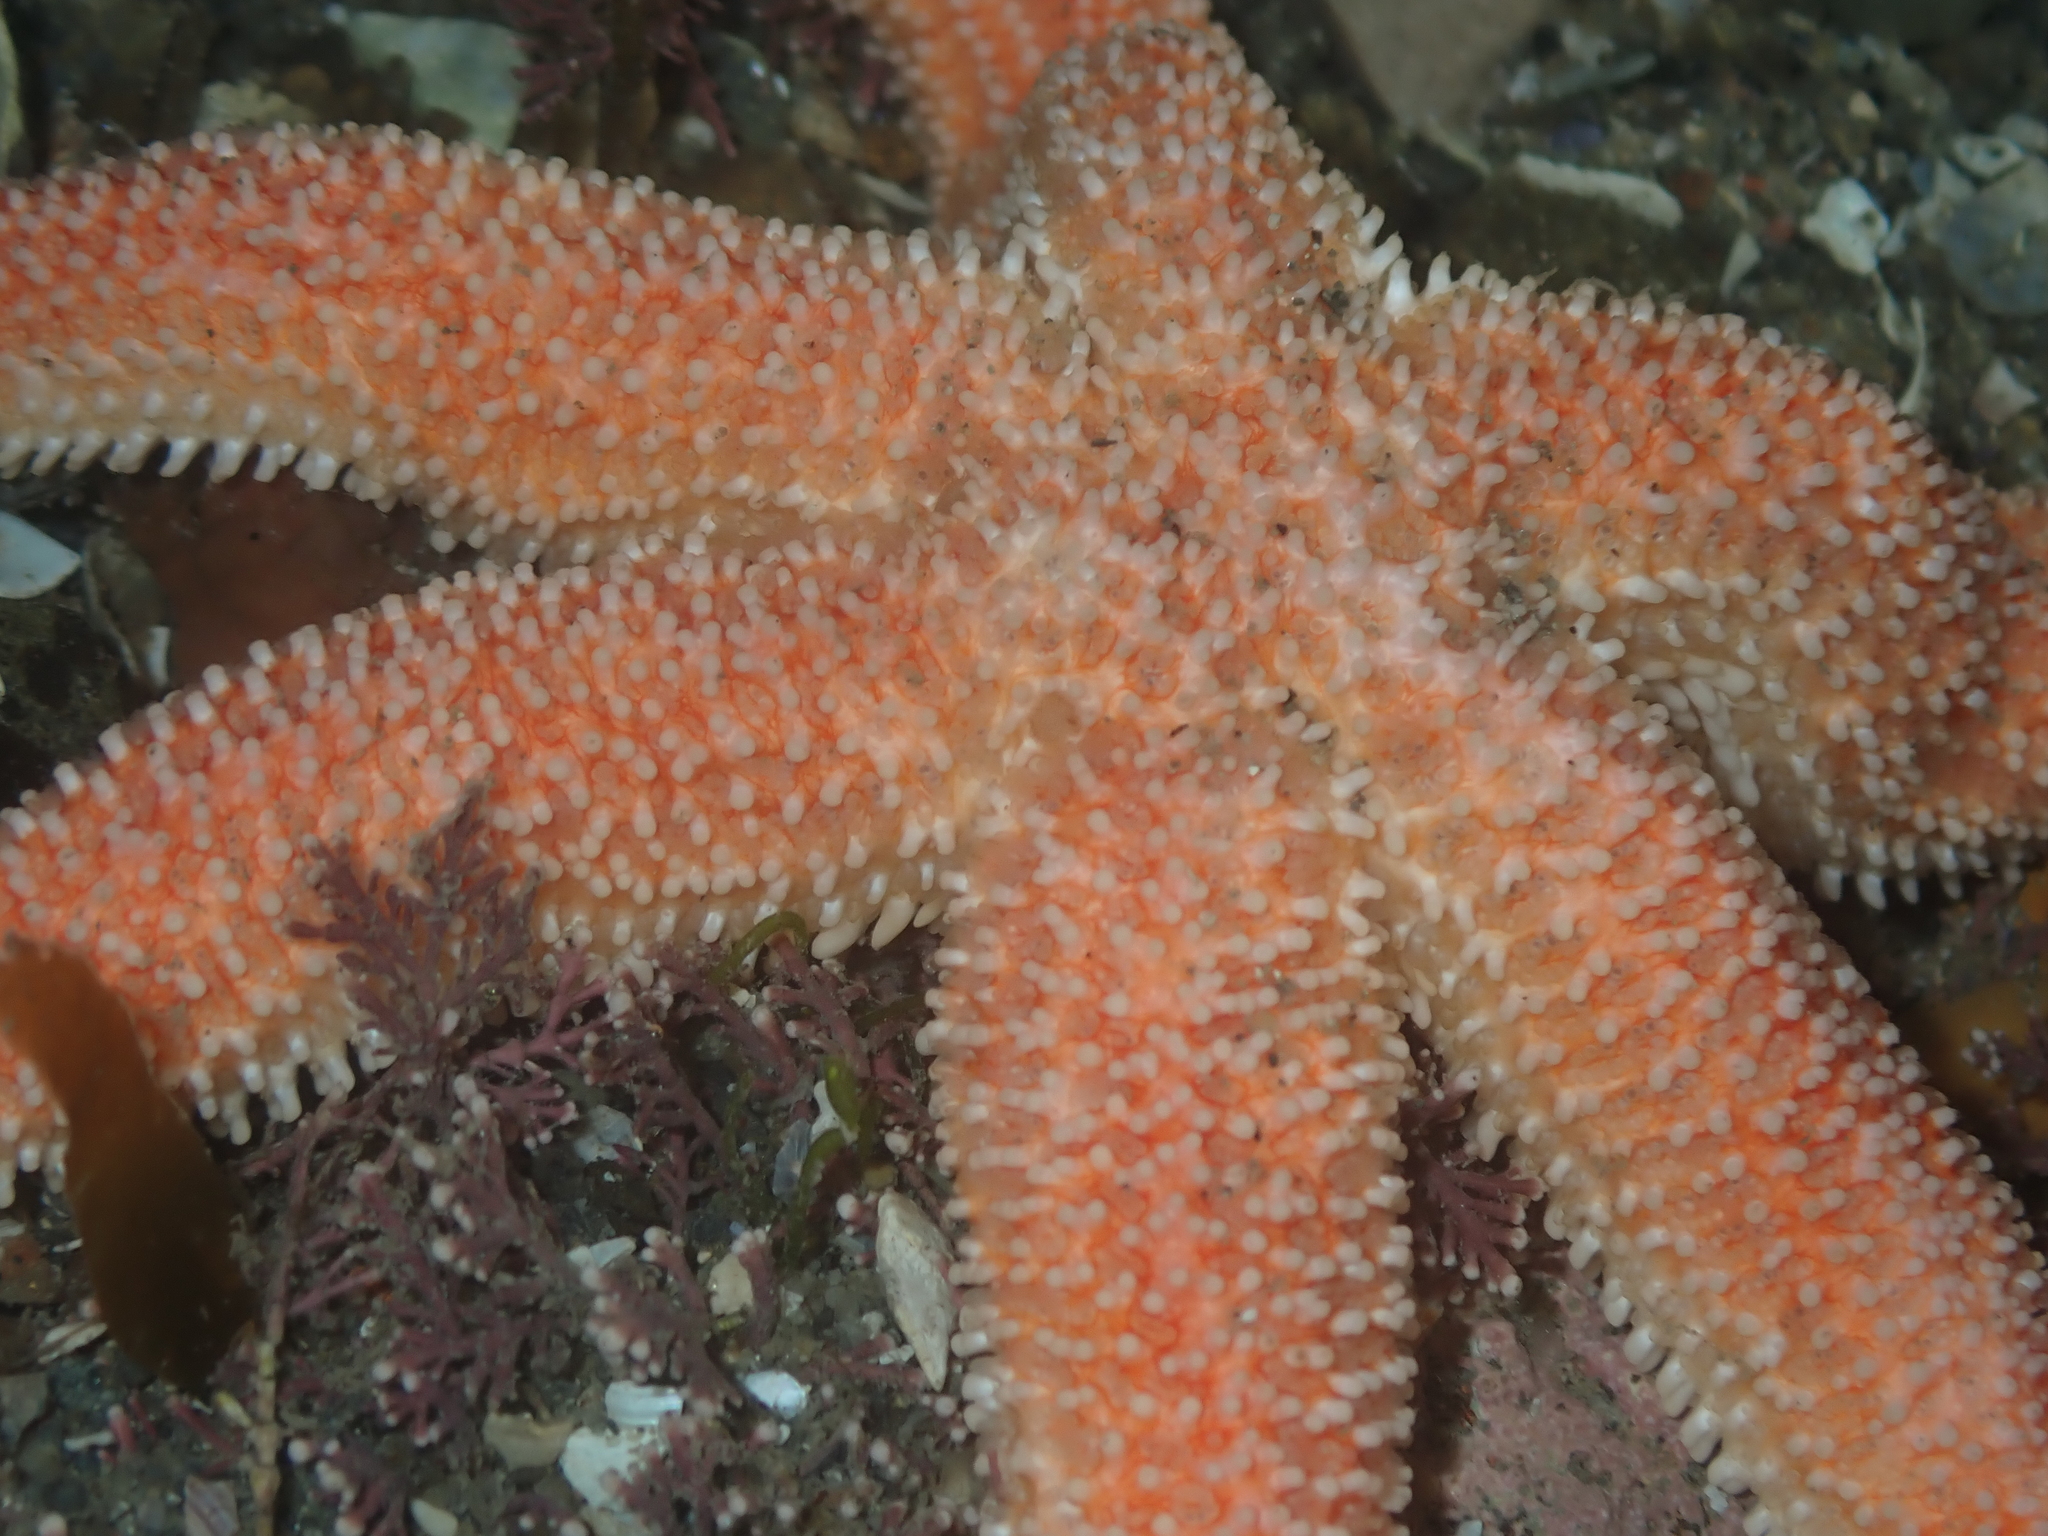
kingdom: Animalia
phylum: Echinodermata
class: Asteroidea
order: Forcipulatida
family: Stichasteridae
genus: Allostichaster
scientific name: Allostichaster insignis
